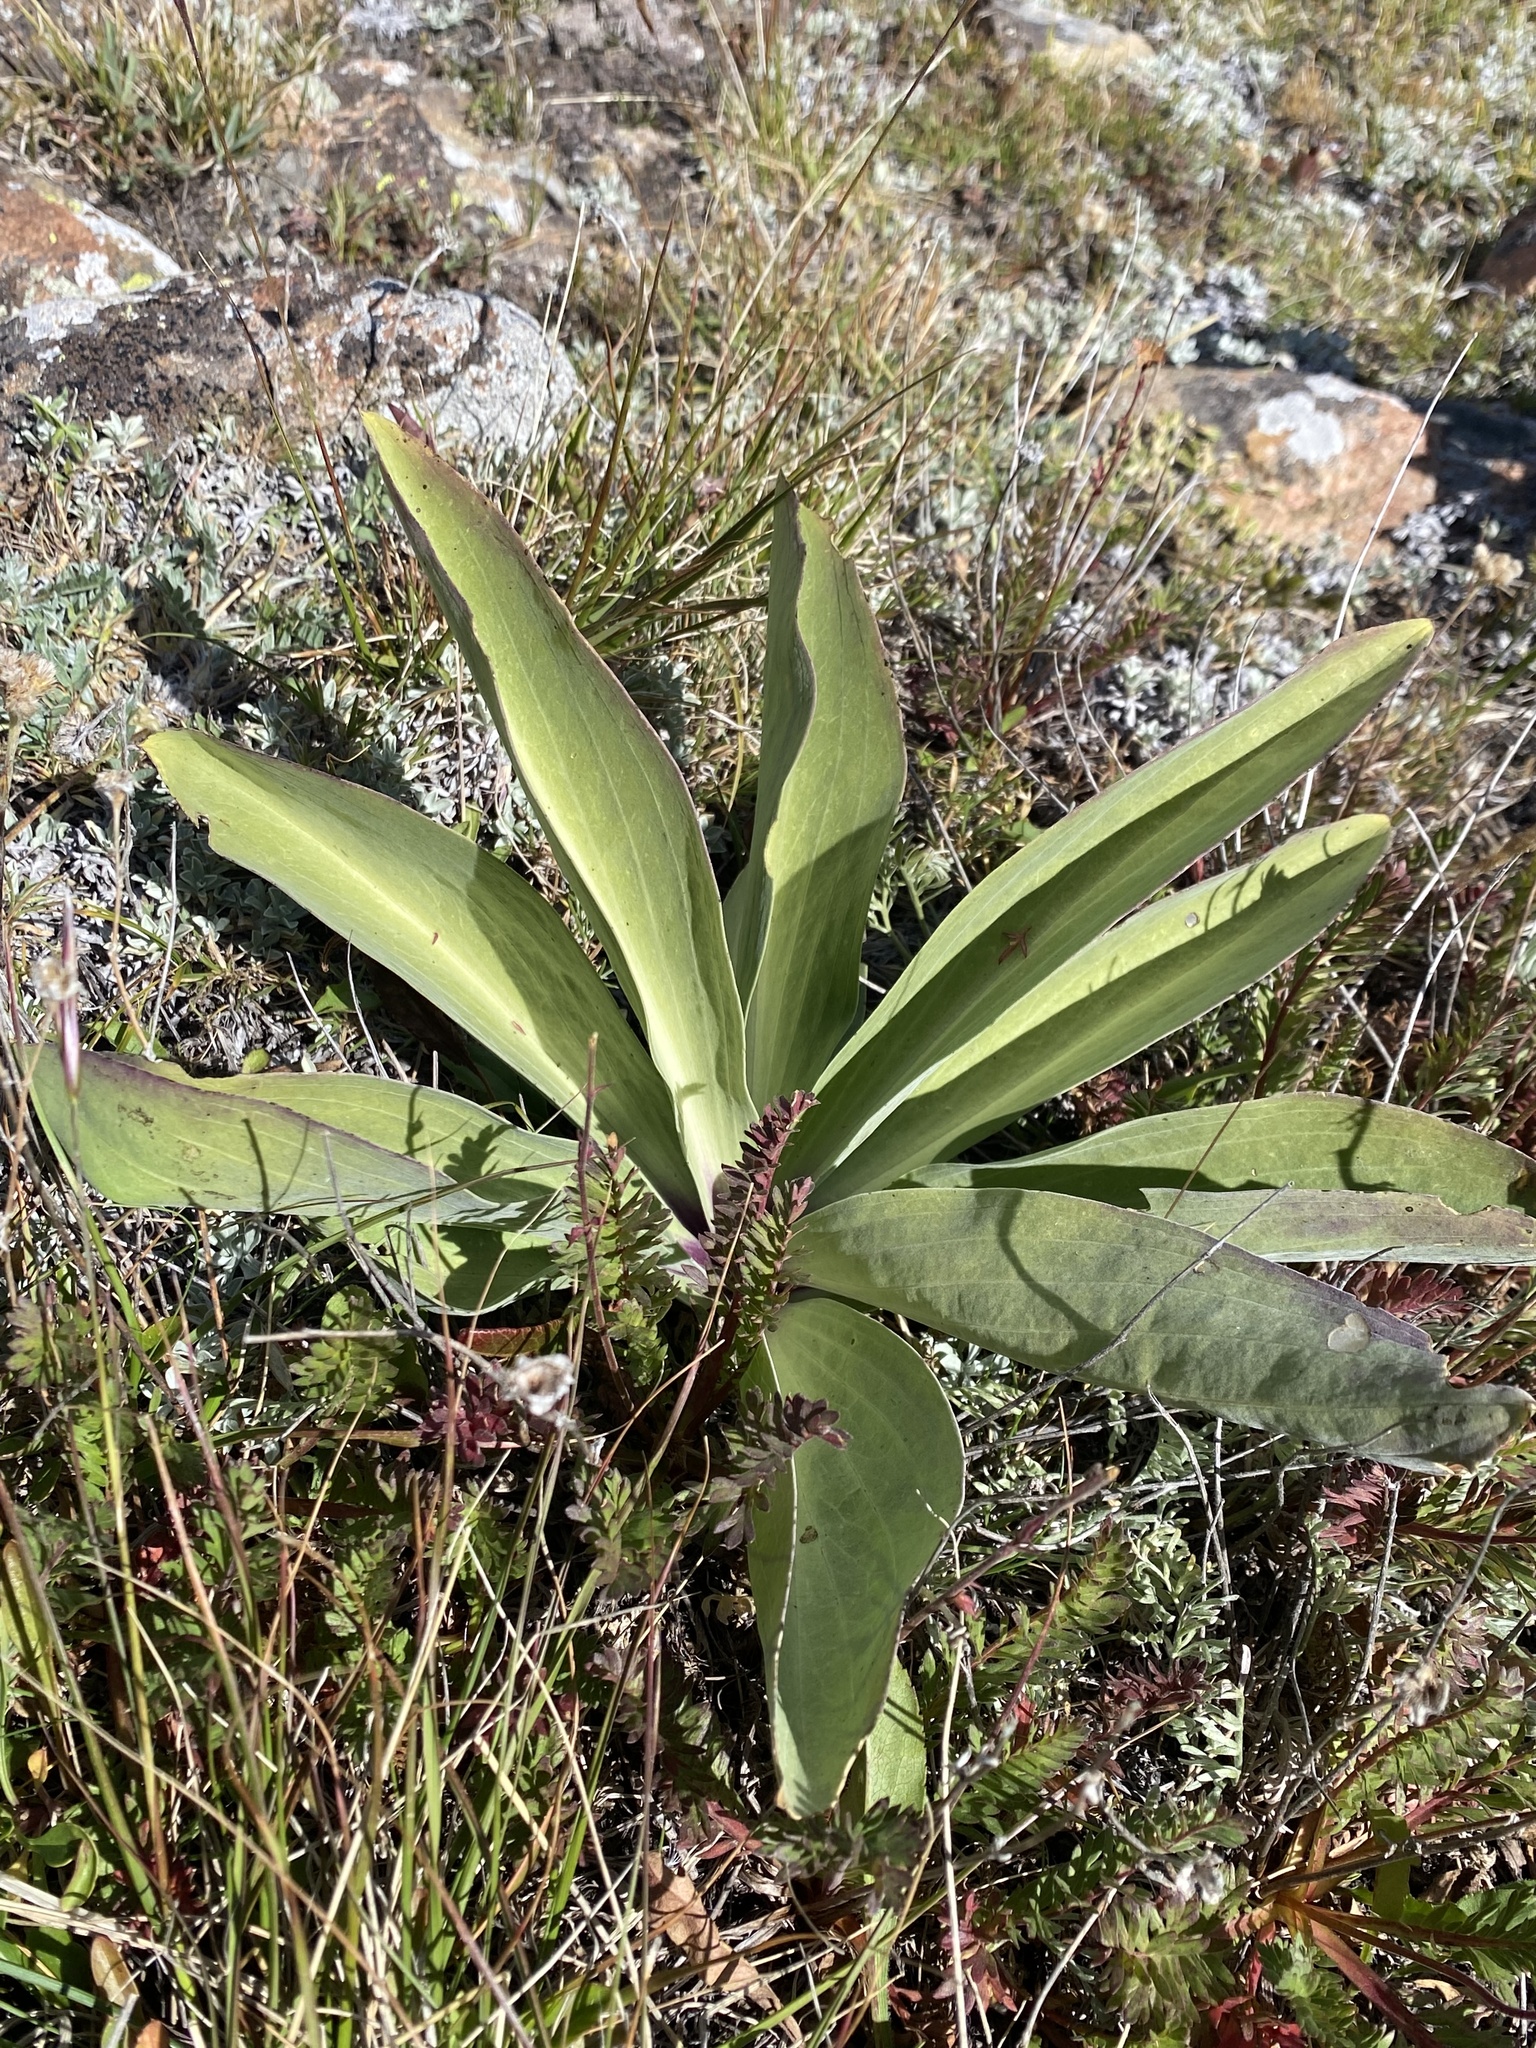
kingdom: Plantae
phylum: Tracheophyta
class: Magnoliopsida
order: Gentianales
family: Gentianaceae
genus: Frasera
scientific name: Frasera speciosa
